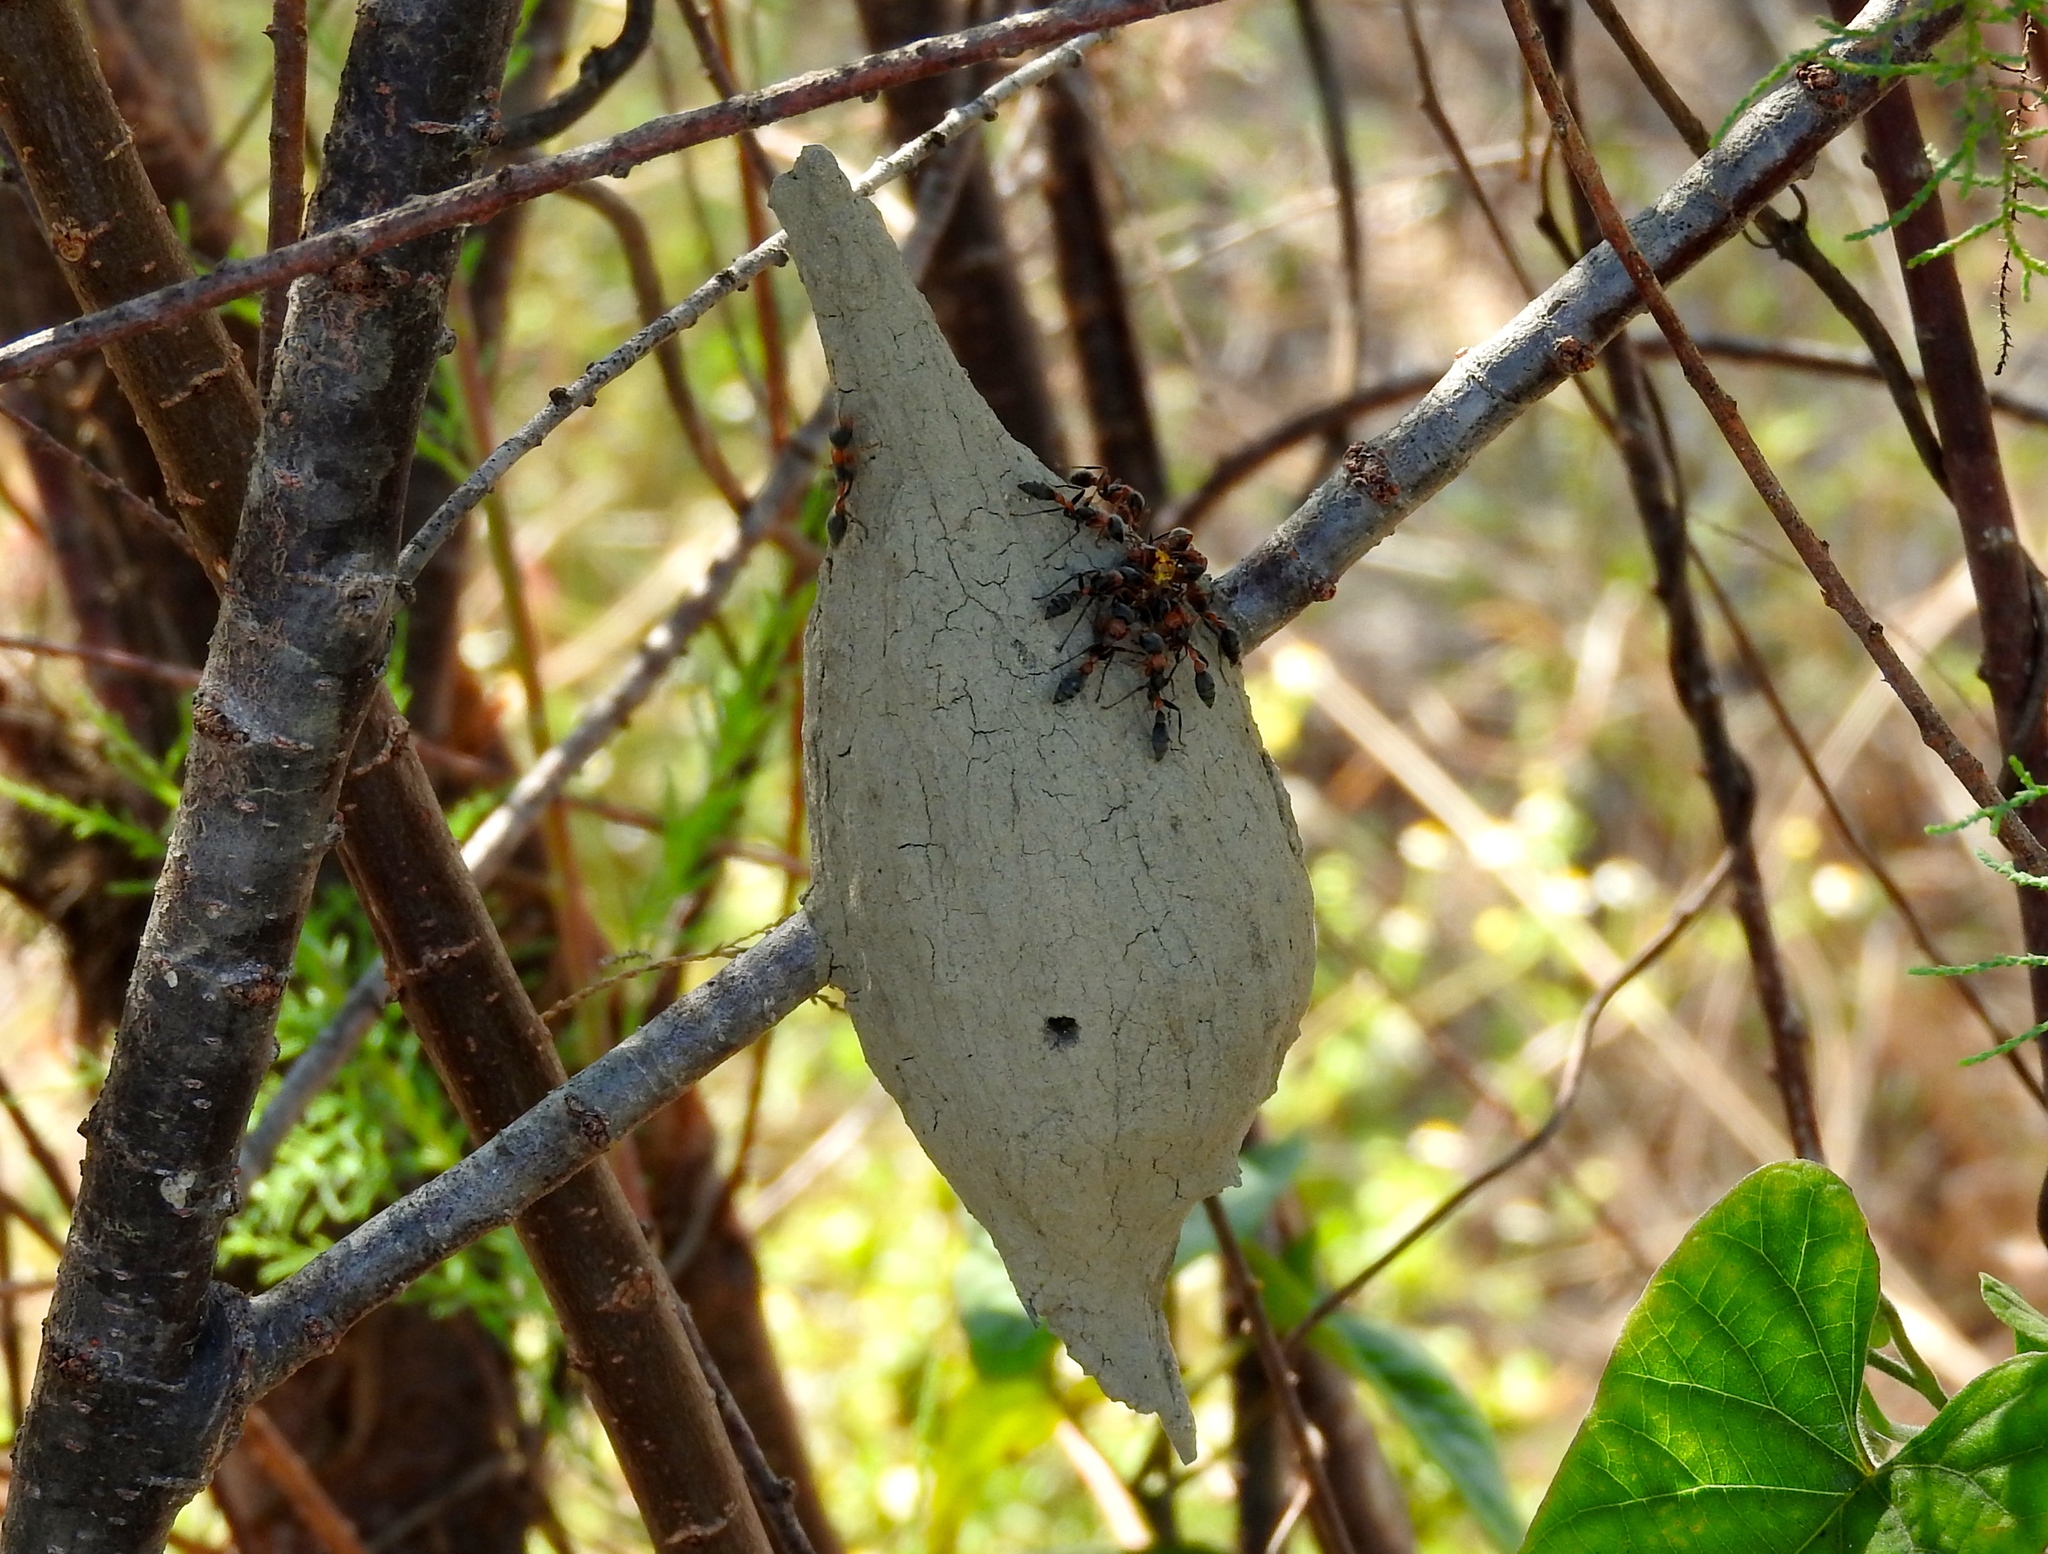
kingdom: Animalia
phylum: Arthropoda
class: Insecta
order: Hymenoptera
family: Formicidae
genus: Pseudomyrmex
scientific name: Pseudomyrmex gracilis
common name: Graceful twig ant
